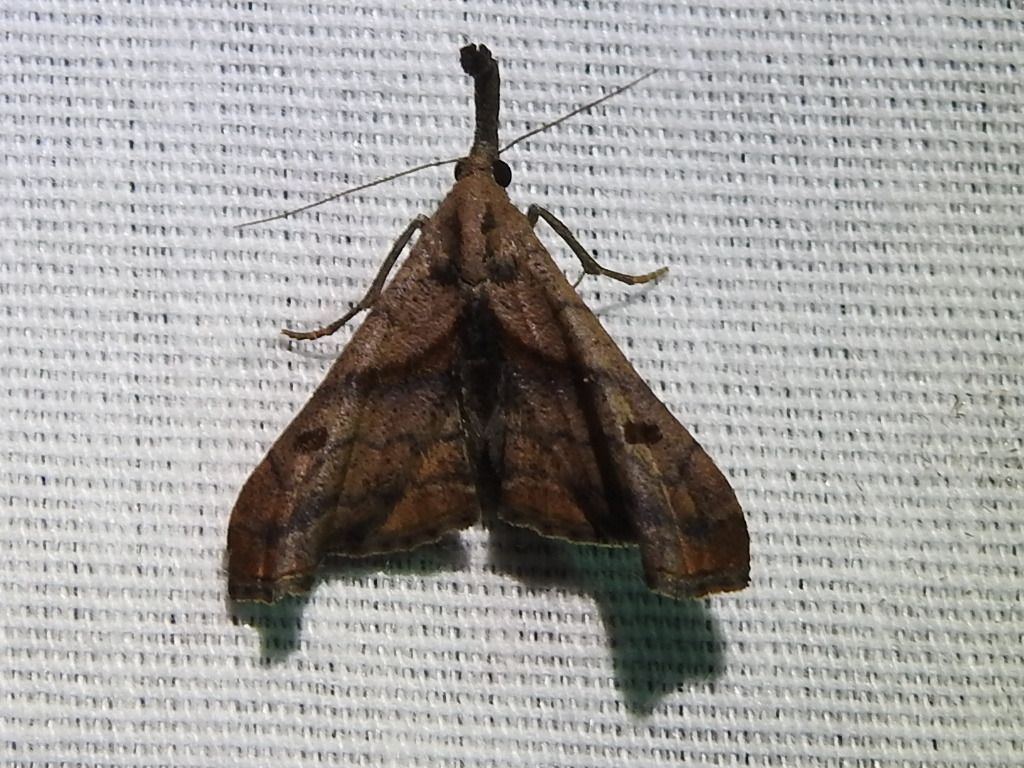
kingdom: Animalia
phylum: Arthropoda
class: Insecta
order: Lepidoptera
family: Erebidae
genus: Palthis
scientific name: Palthis angulalis
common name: Dark-spotted palthis moth
